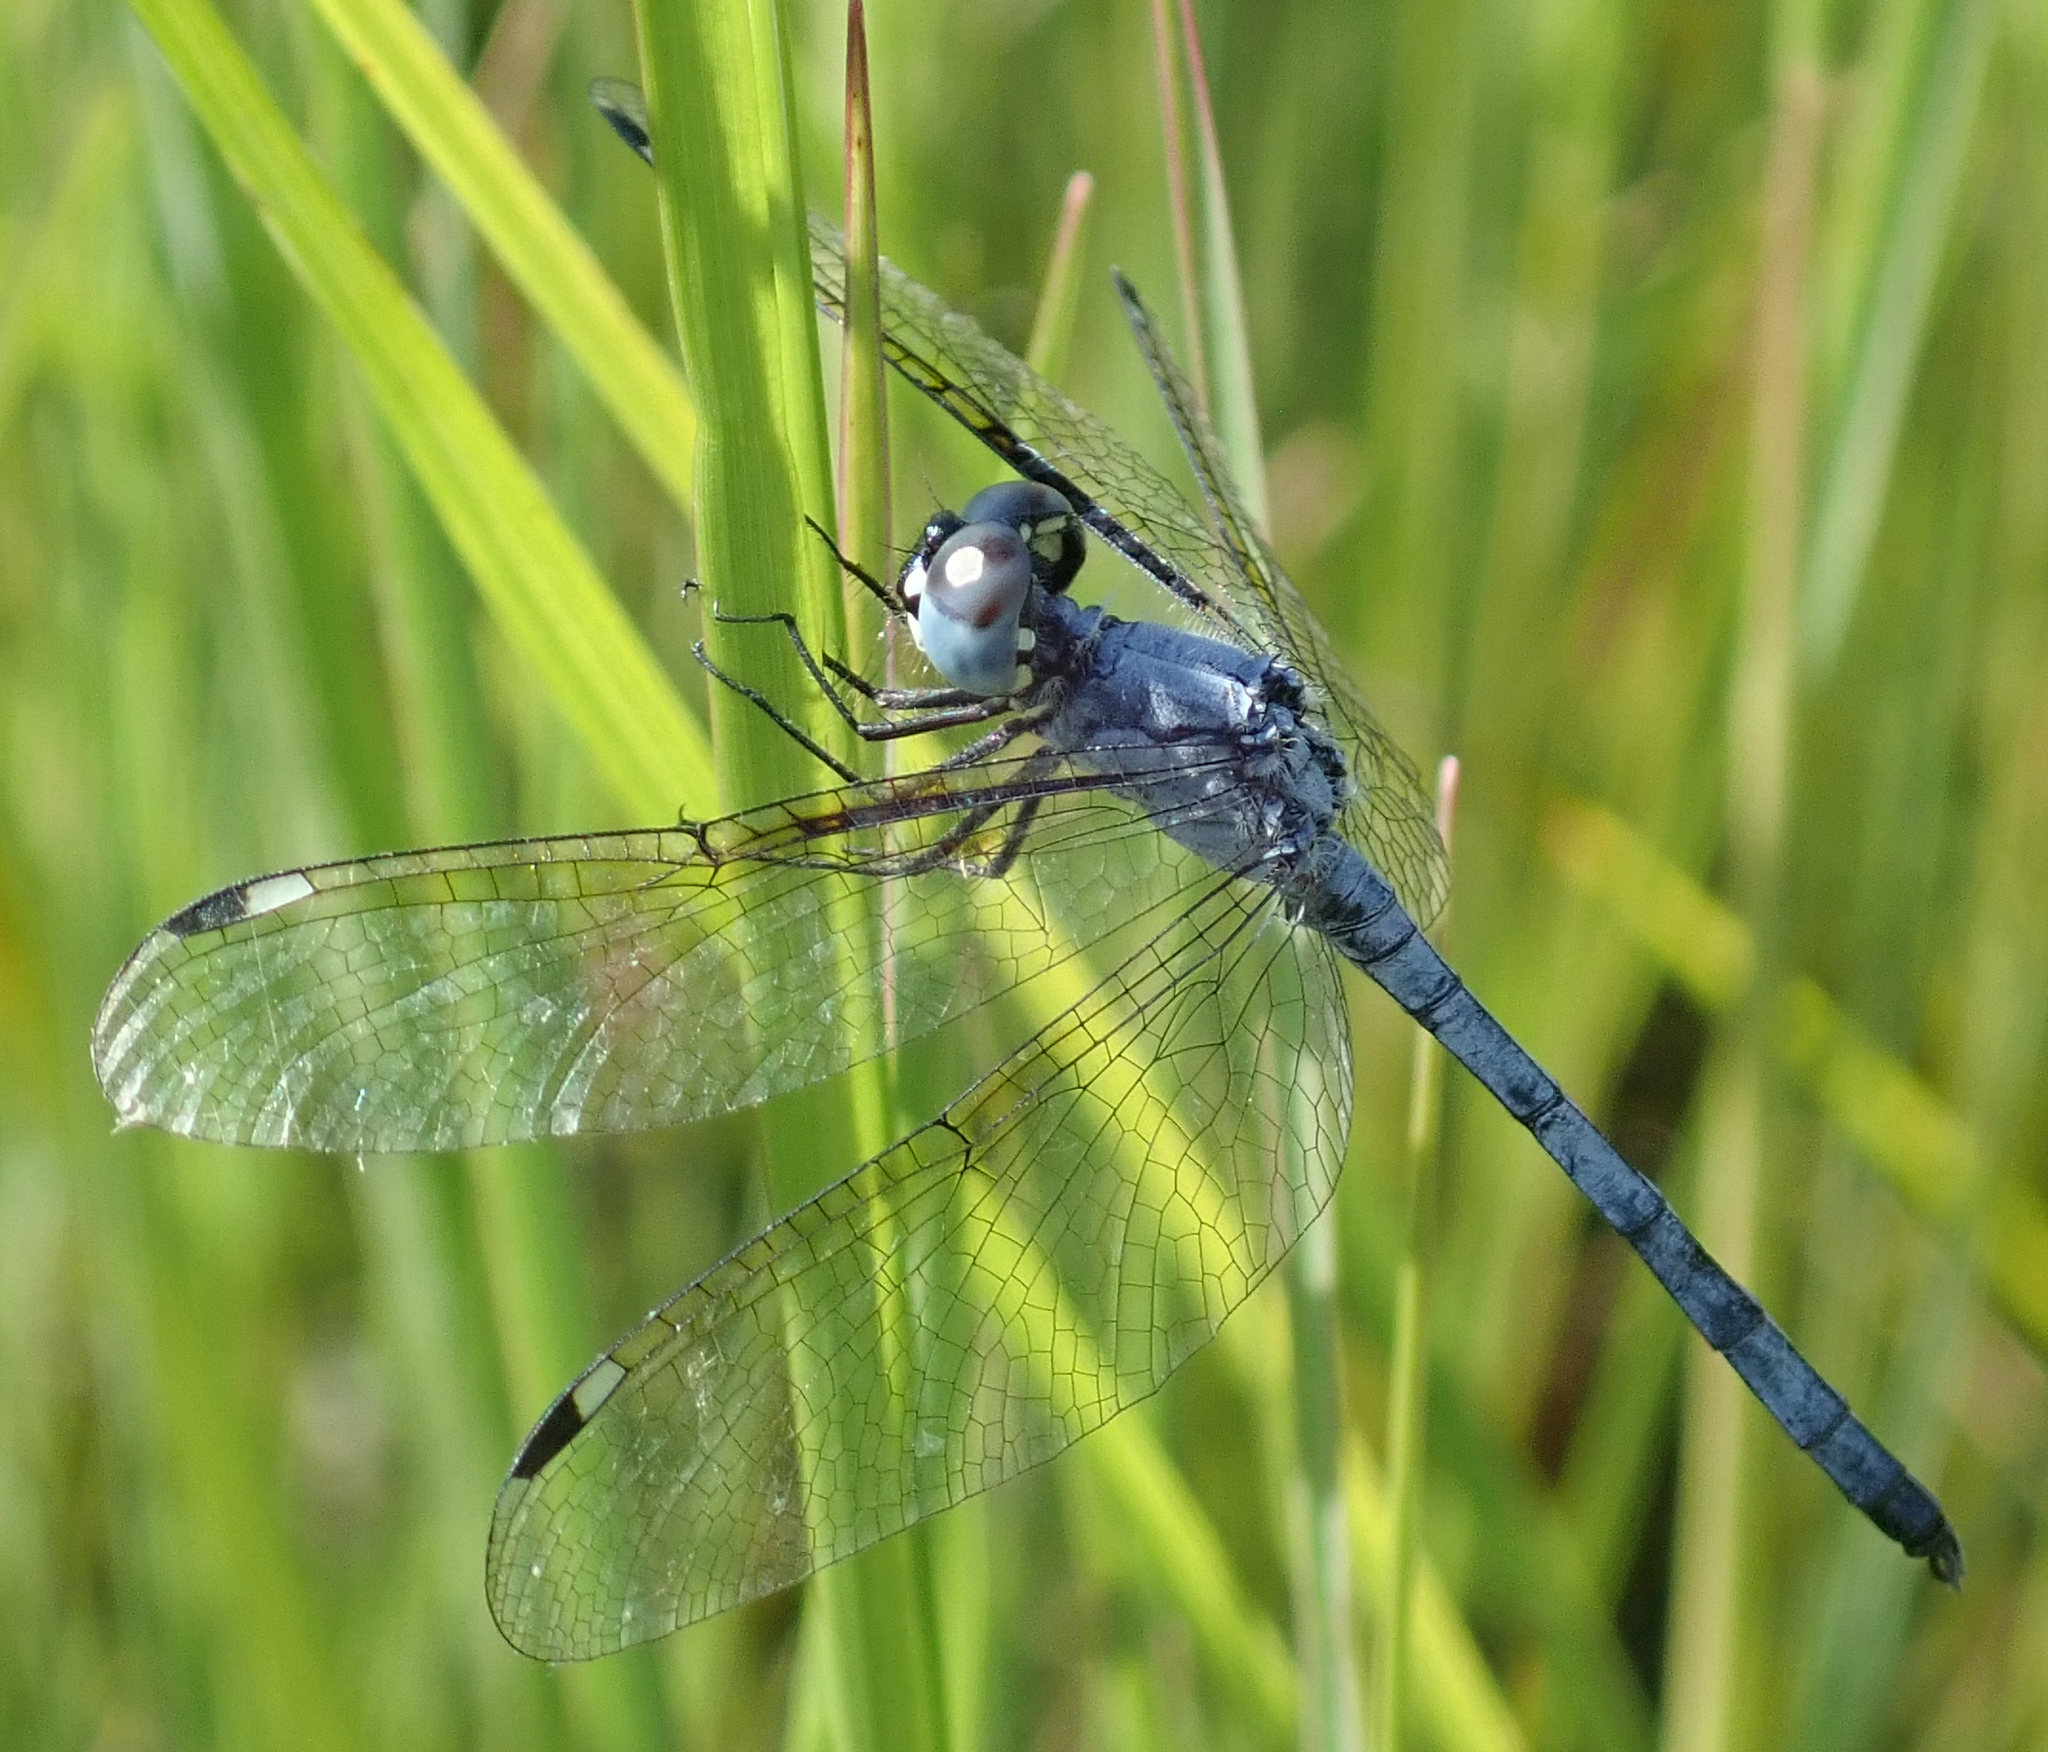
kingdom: Animalia
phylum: Arthropoda
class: Insecta
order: Odonata
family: Libellulidae
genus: Hemistigma
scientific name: Hemistigma albipunctum
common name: African pied-spot
